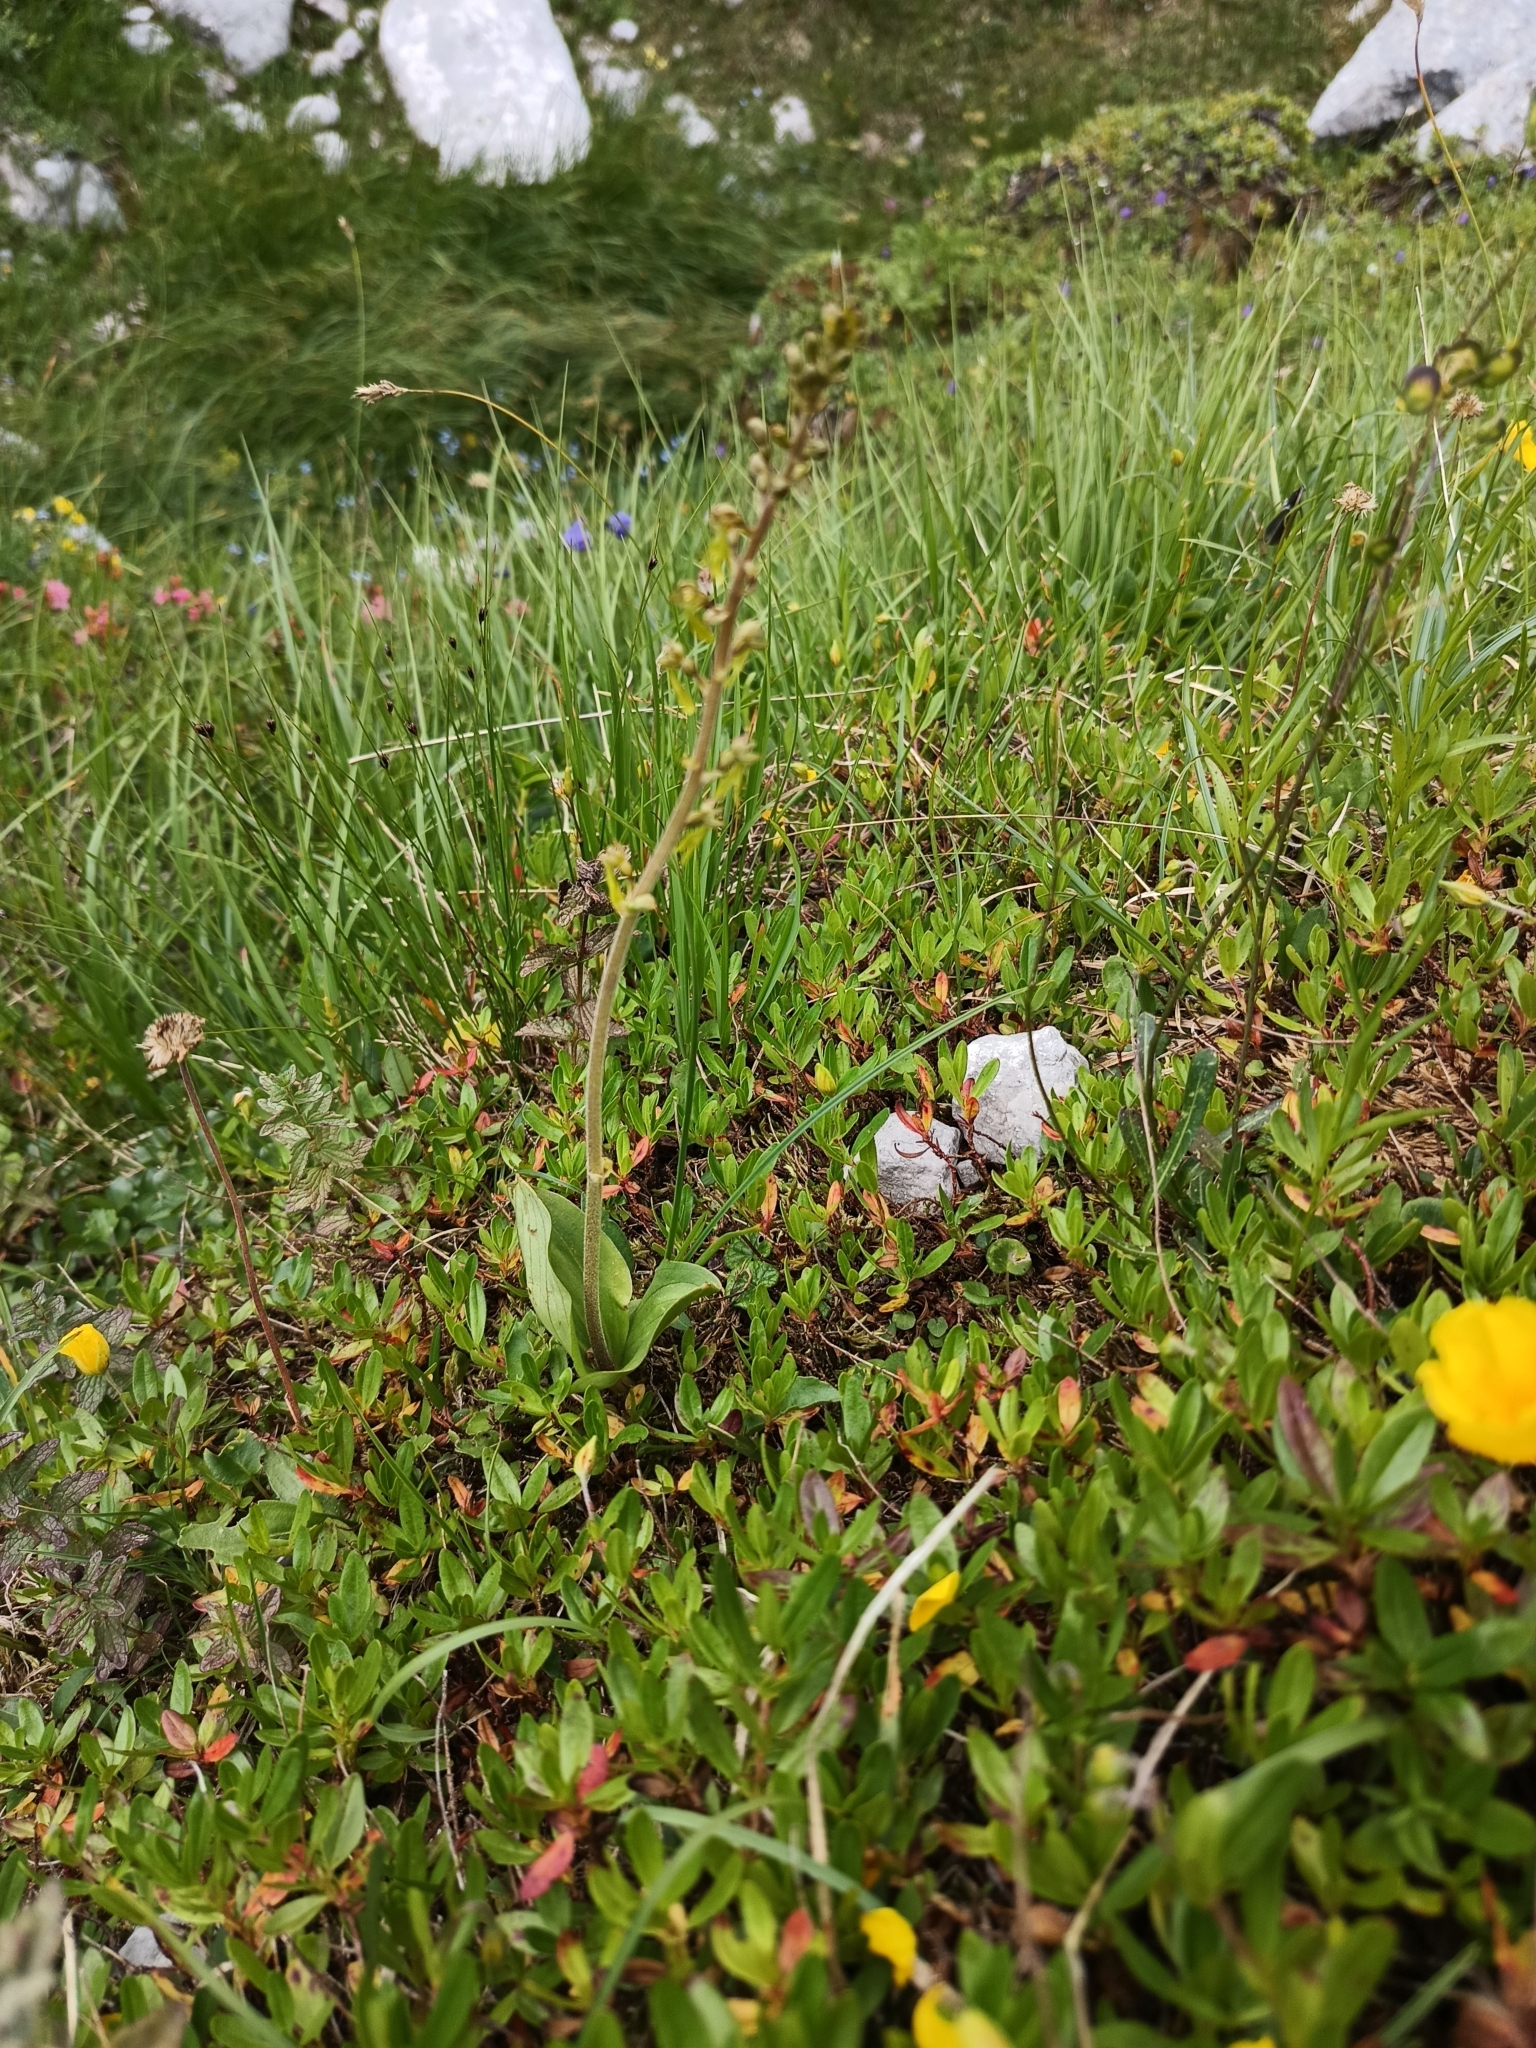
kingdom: Plantae
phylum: Tracheophyta
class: Liliopsida
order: Asparagales
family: Orchidaceae
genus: Neottia
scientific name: Neottia ovata
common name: Common twayblade
